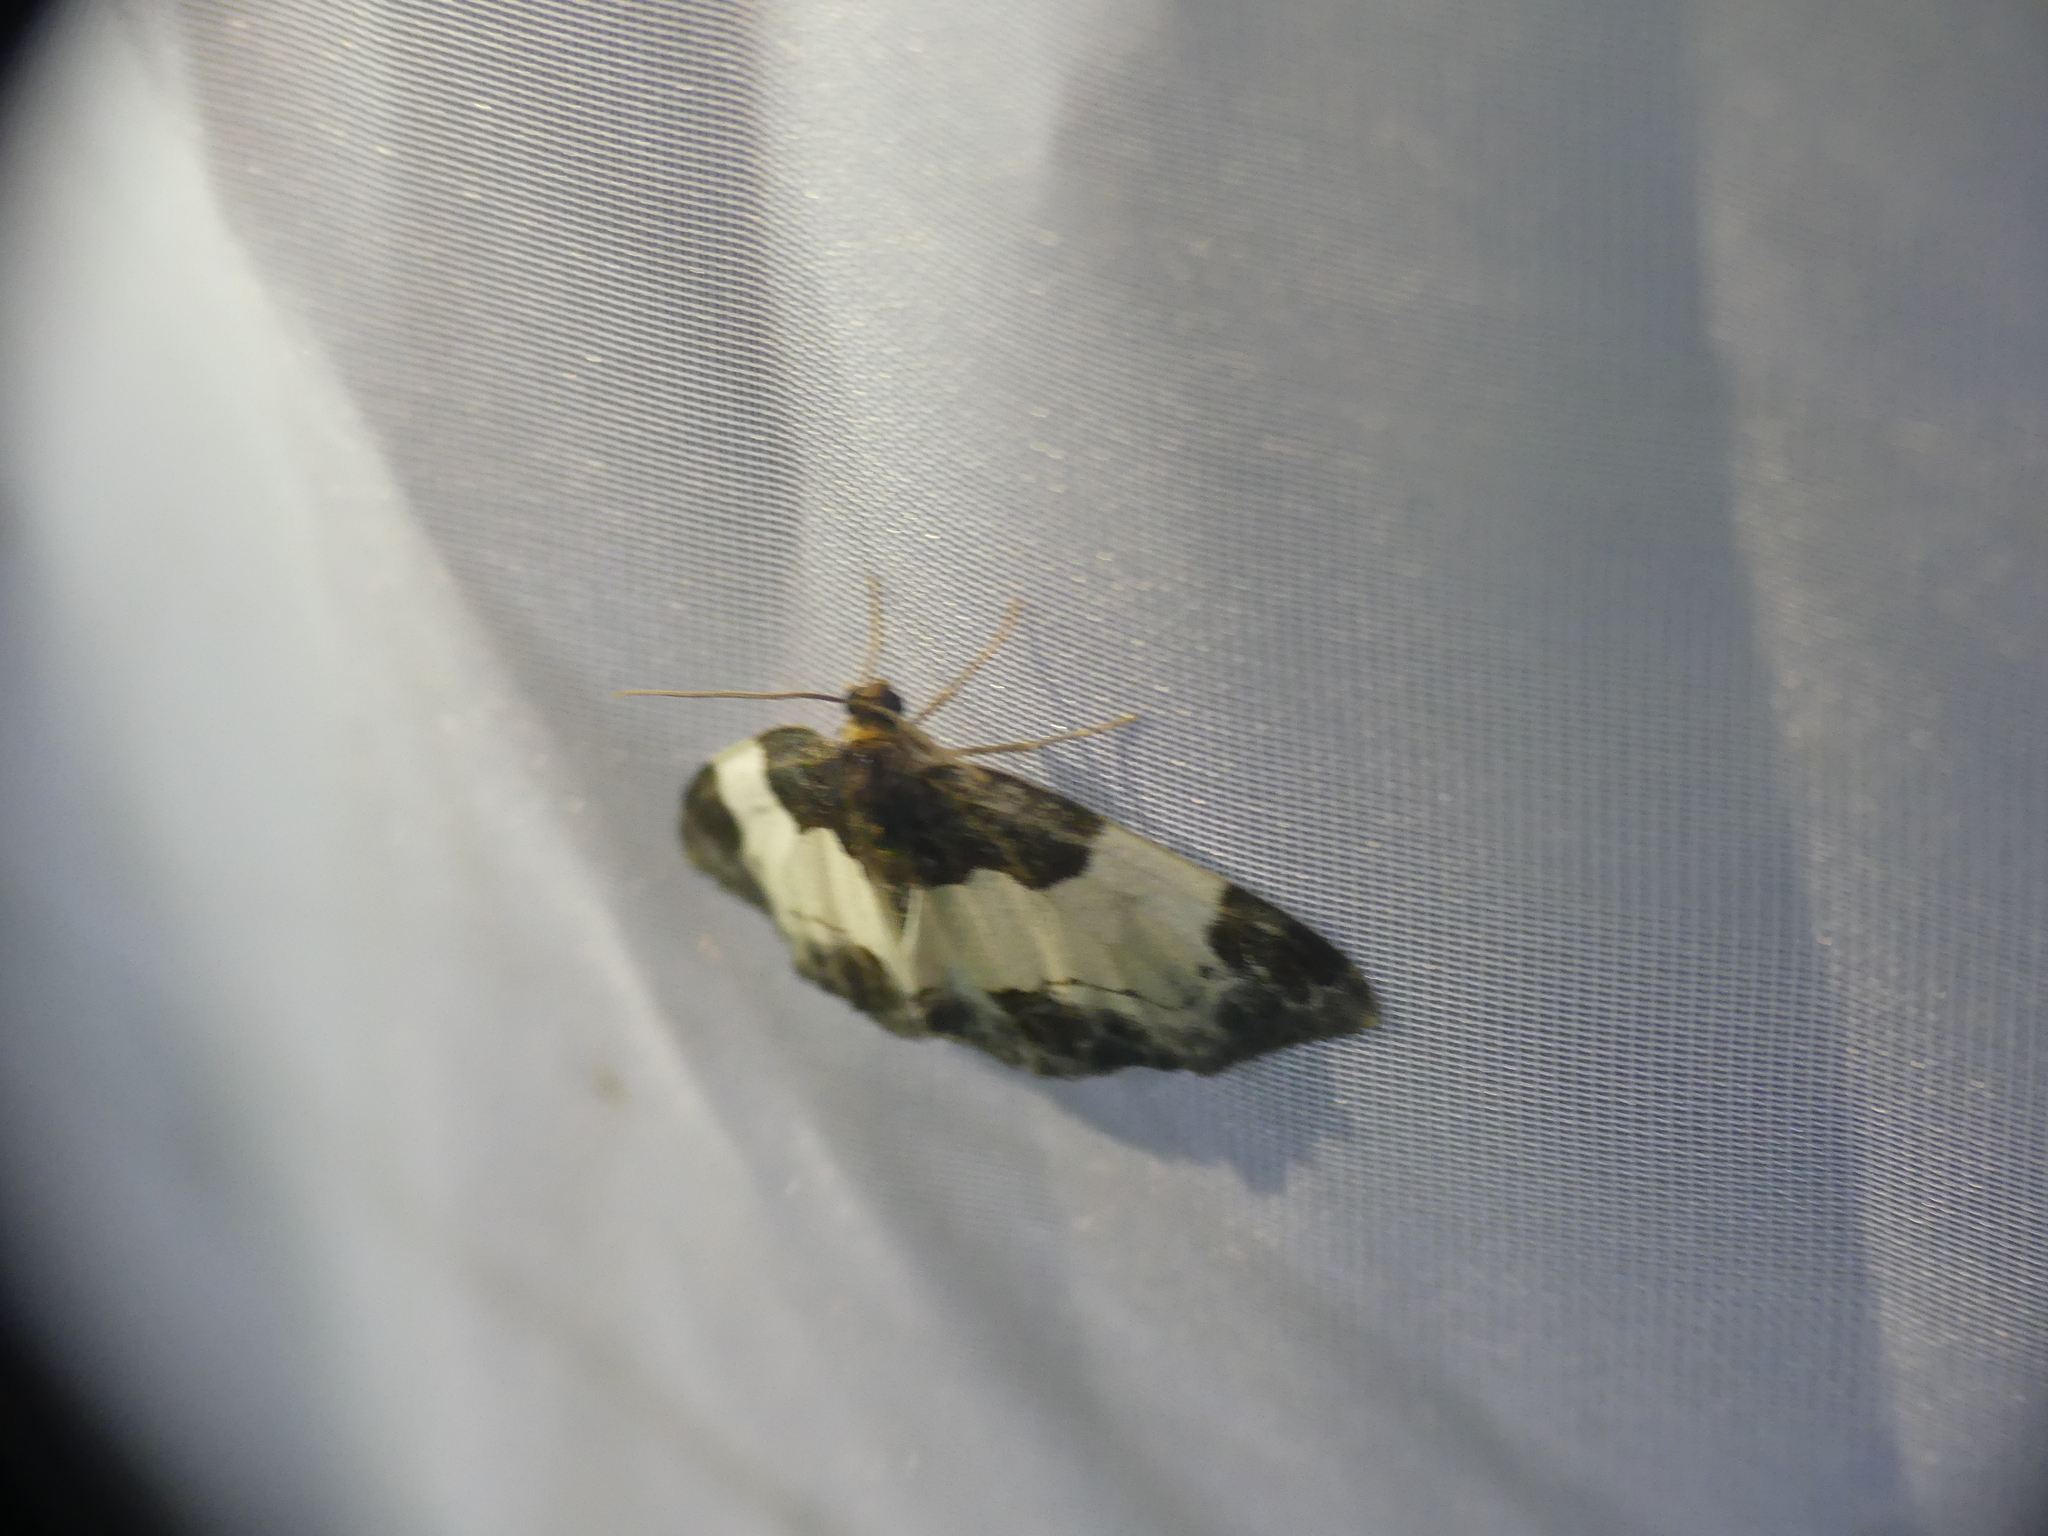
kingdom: Animalia
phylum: Arthropoda
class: Insecta
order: Lepidoptera
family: Geometridae
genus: Mesoleuca
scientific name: Mesoleuca albicillata
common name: Beautiful carpet
